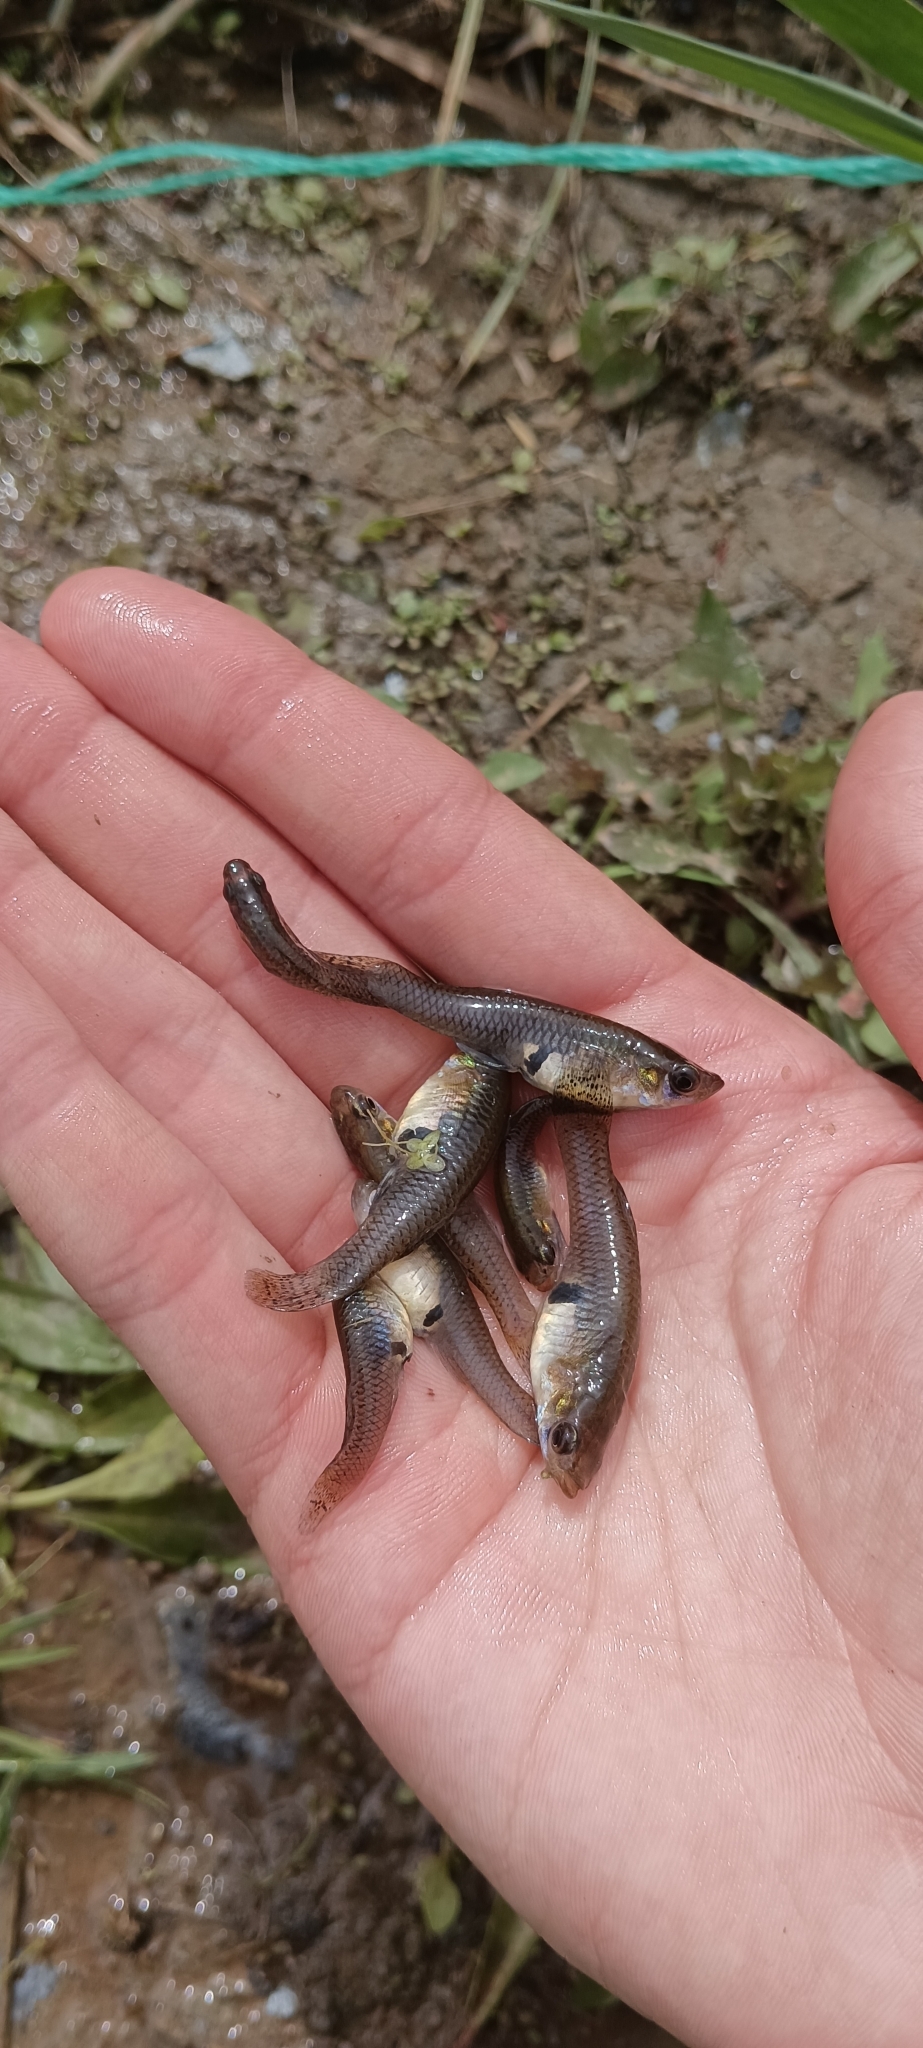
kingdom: Animalia
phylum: Chordata
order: Cyprinodontiformes
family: Poeciliidae
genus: Gambusia
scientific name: Gambusia holbrooki
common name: Eastern mosquitofish
